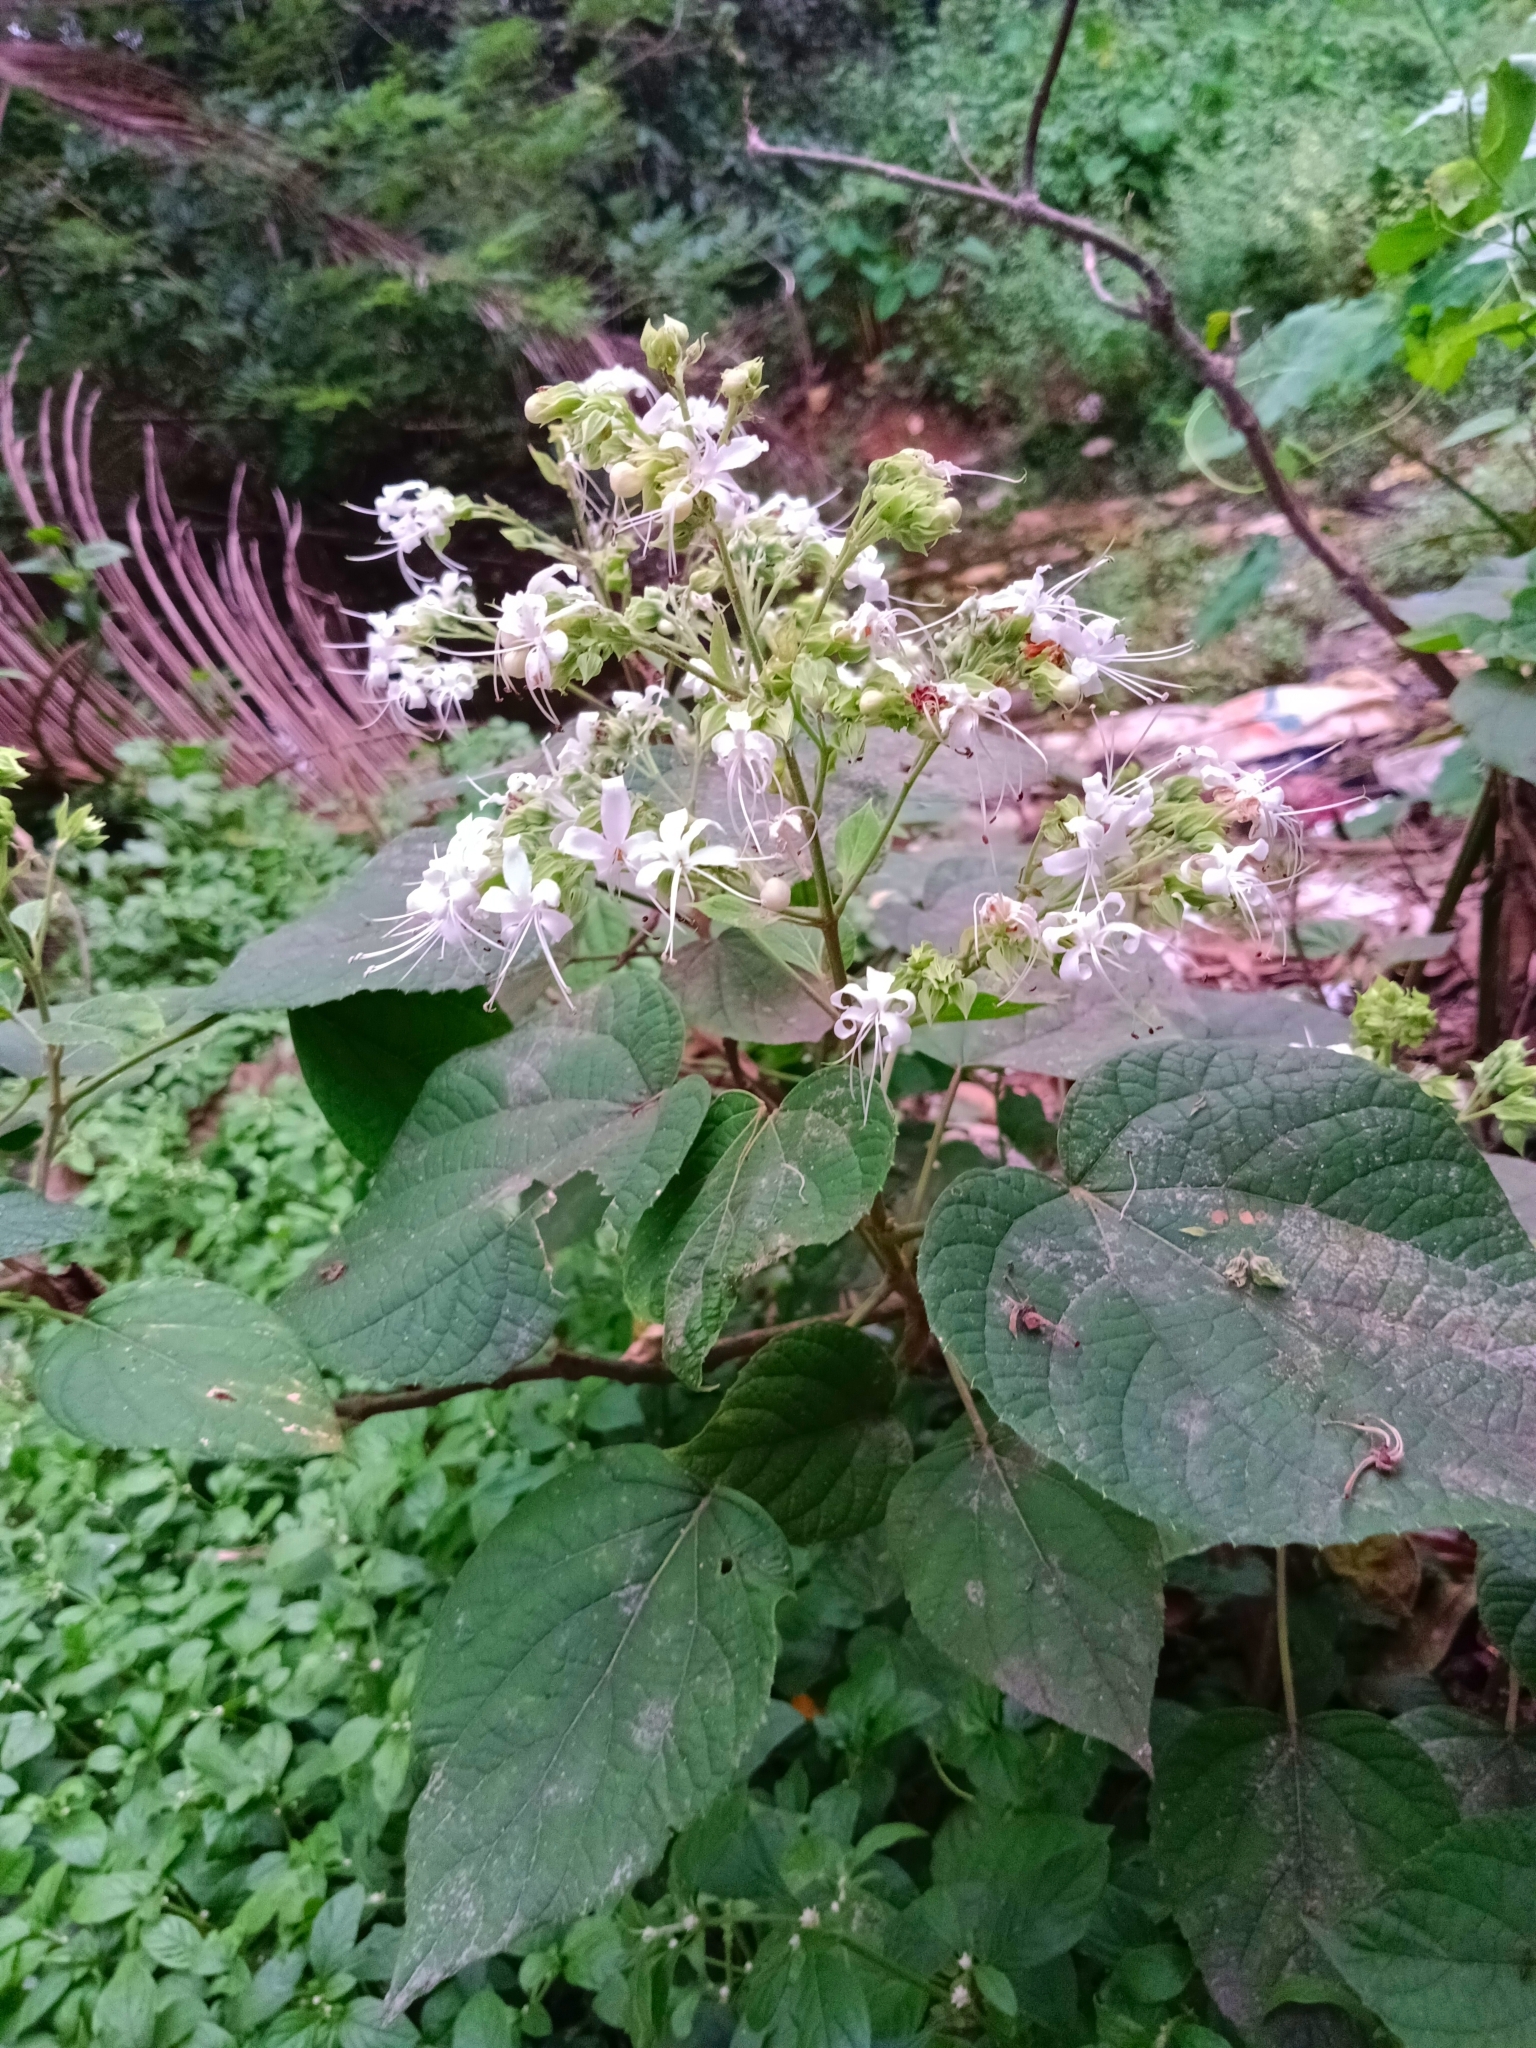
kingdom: Plantae
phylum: Tracheophyta
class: Magnoliopsida
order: Lamiales
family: Lamiaceae
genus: Clerodendrum
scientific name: Clerodendrum infortunatum
